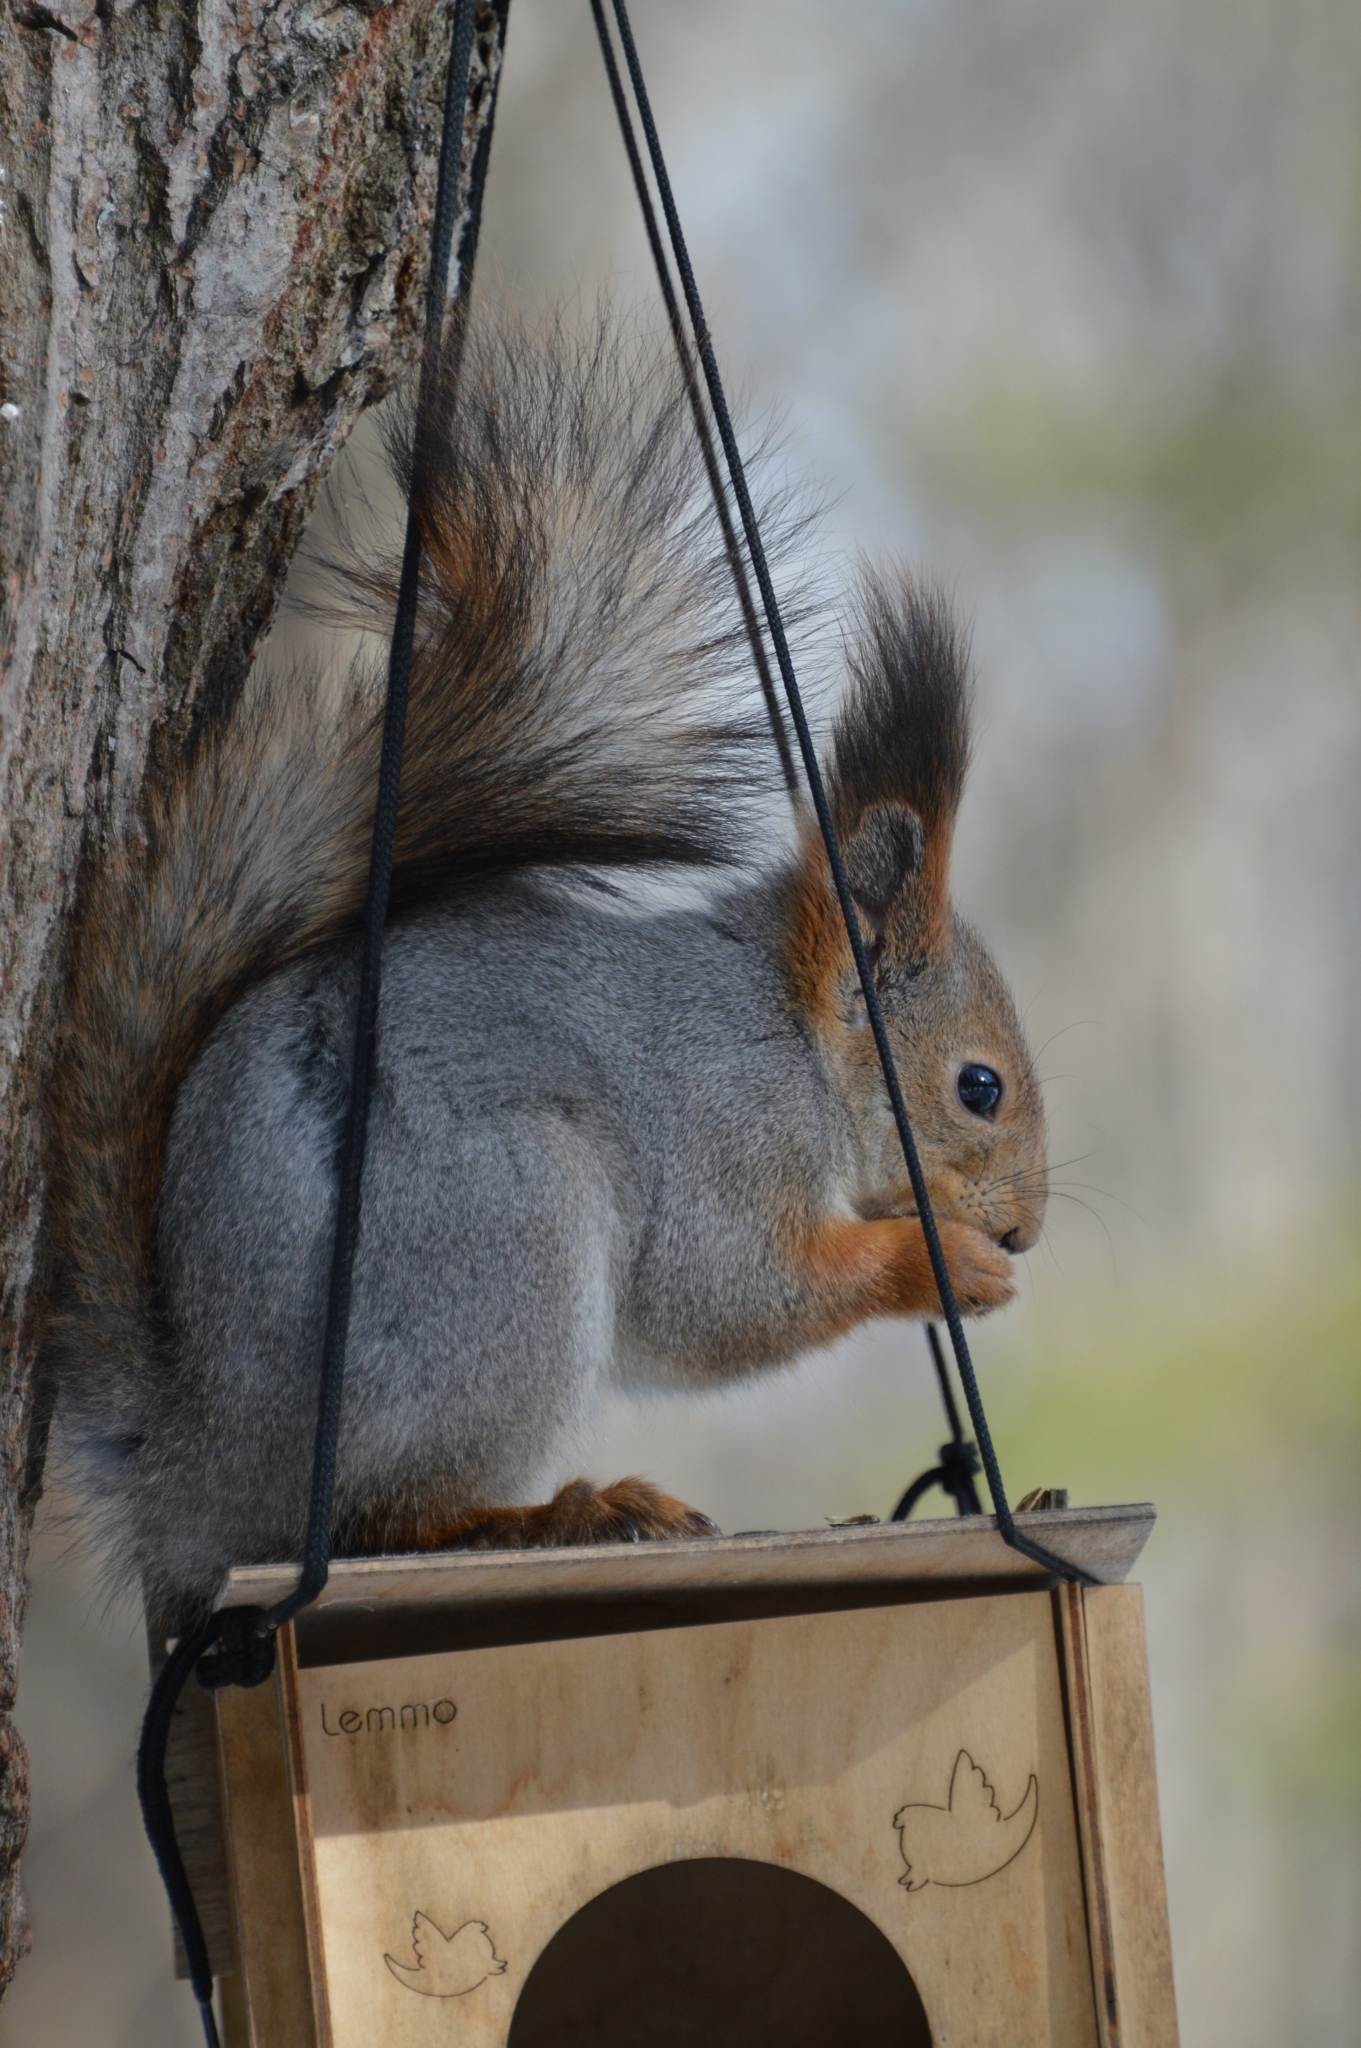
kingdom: Animalia
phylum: Chordata
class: Mammalia
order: Rodentia
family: Sciuridae
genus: Sciurus
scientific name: Sciurus vulgaris
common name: Eurasian red squirrel
